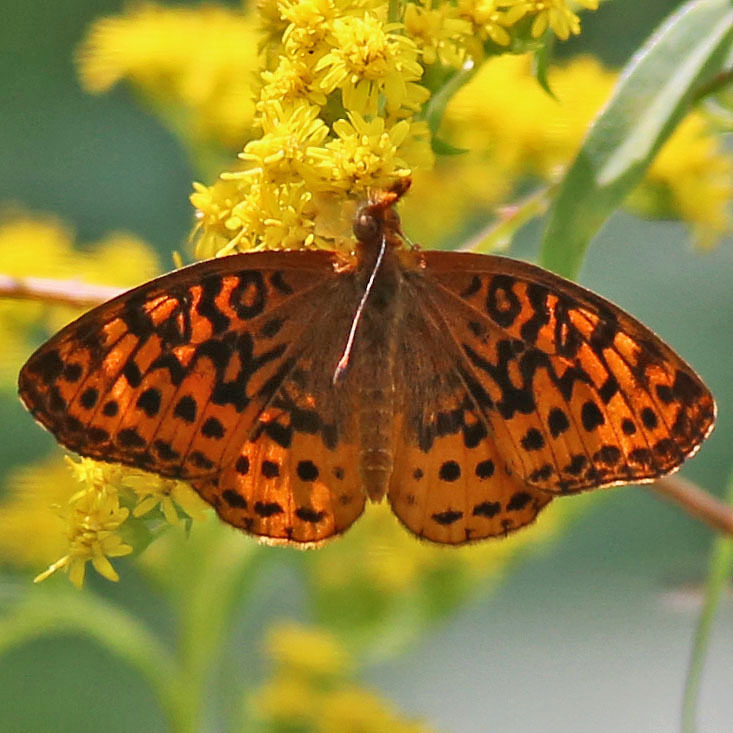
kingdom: Animalia
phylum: Arthropoda
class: Insecta
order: Lepidoptera
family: Nymphalidae
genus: Clossiana
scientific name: Clossiana toddi
